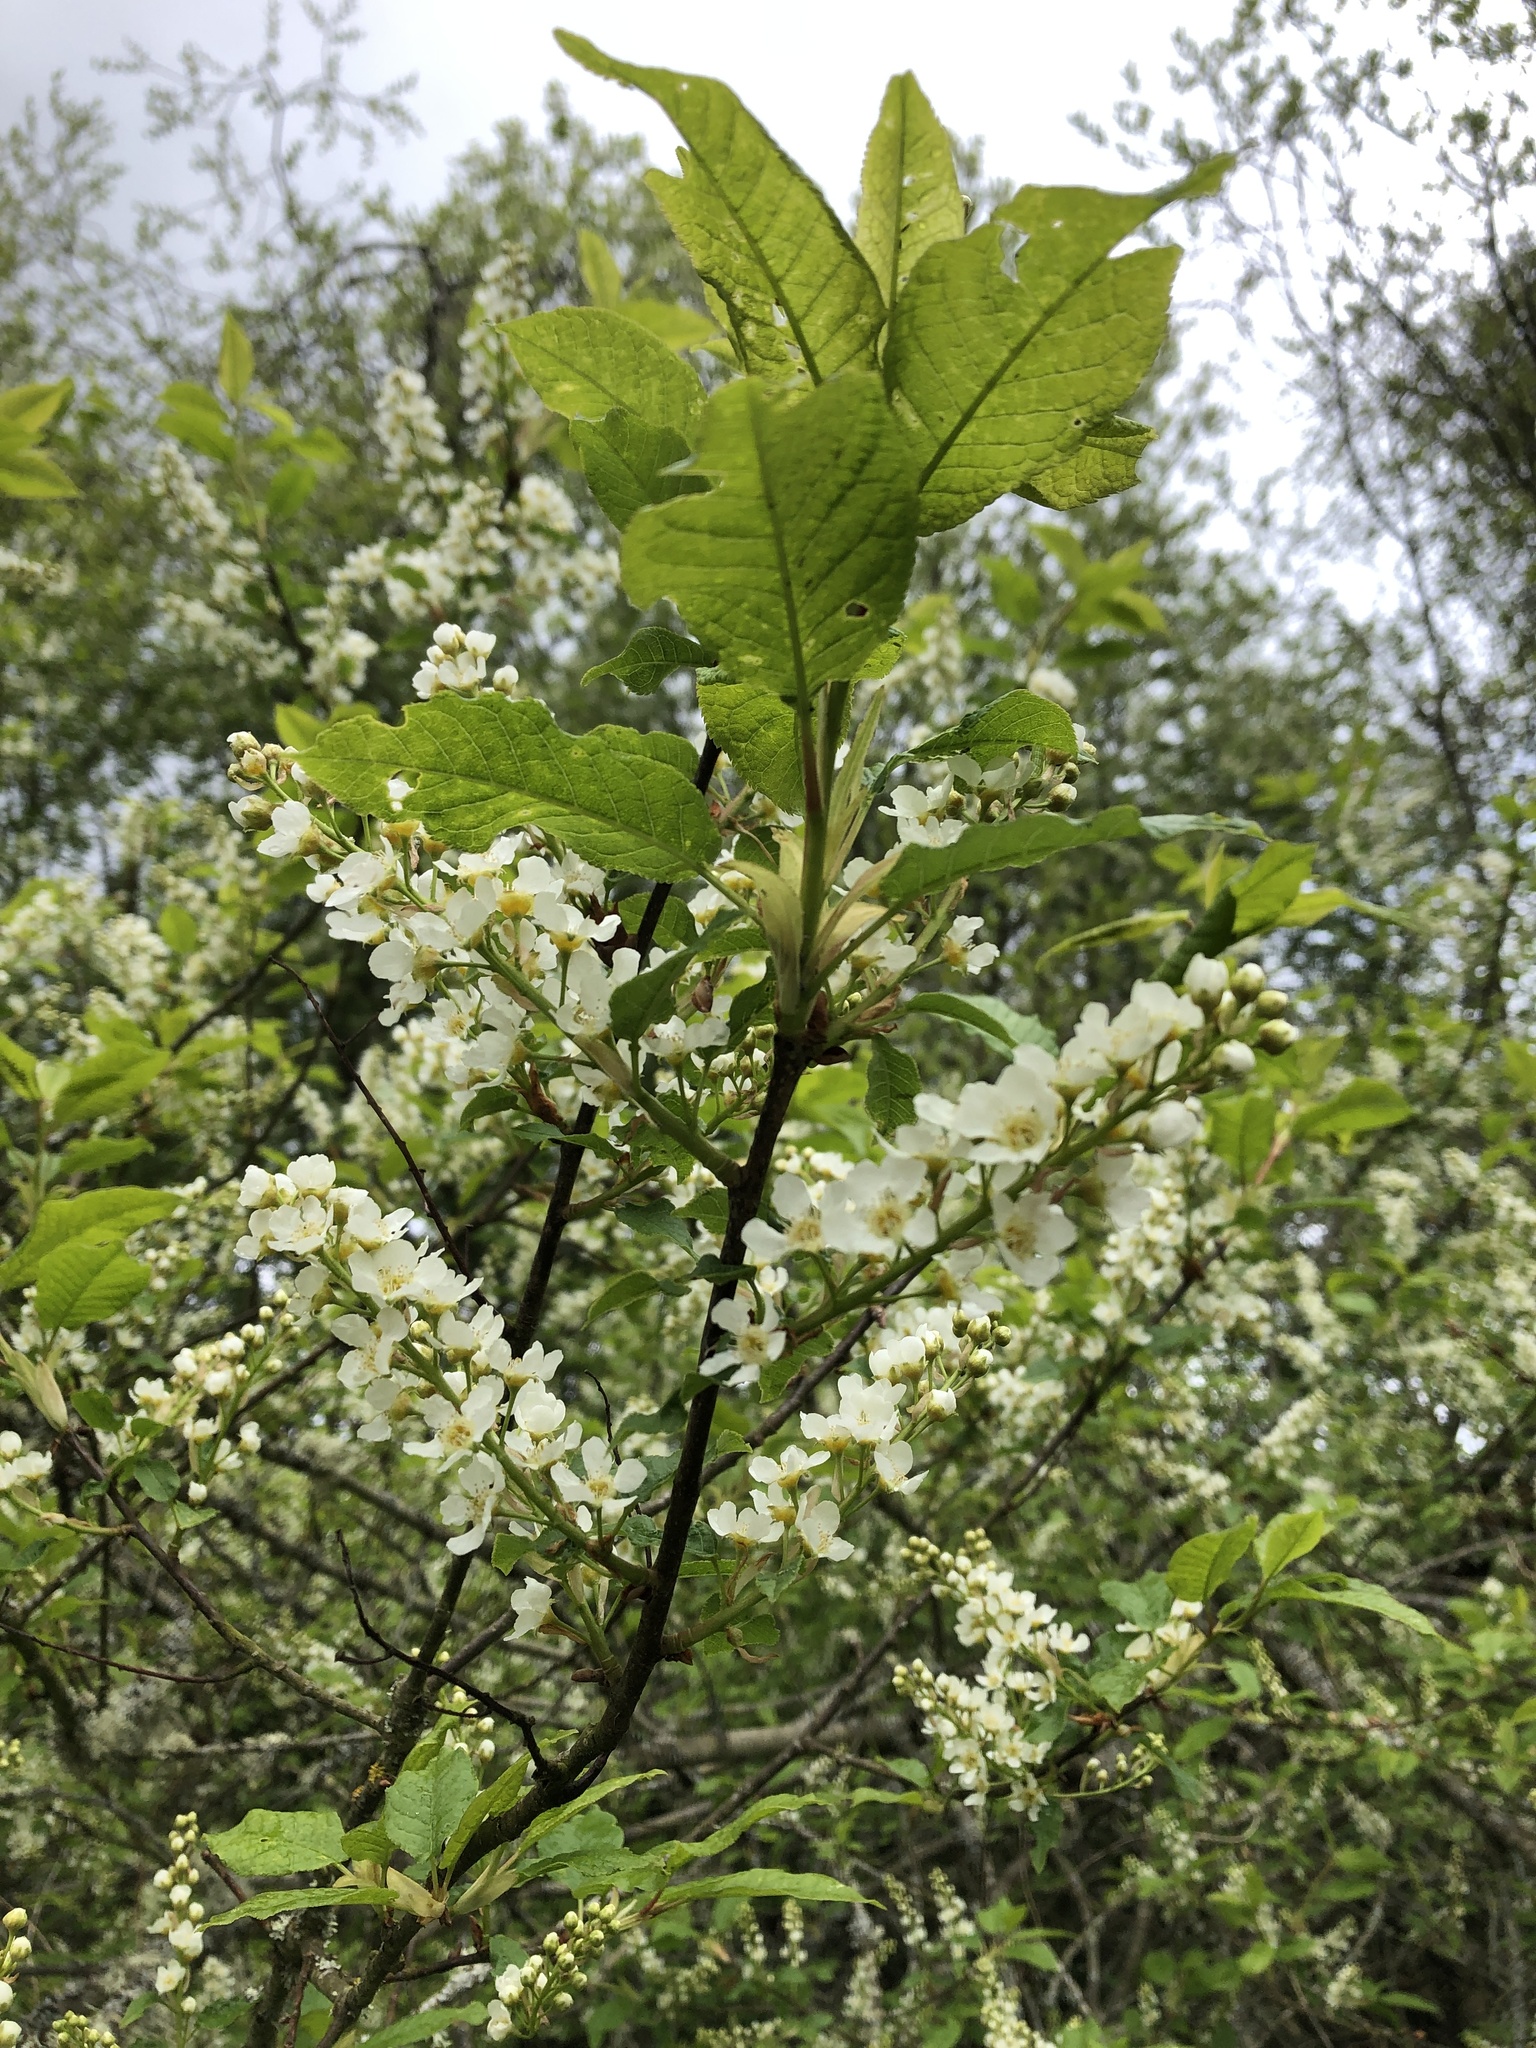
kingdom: Plantae
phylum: Tracheophyta
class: Magnoliopsida
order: Rosales
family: Rosaceae
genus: Prunus
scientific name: Prunus padus
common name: Bird cherry
